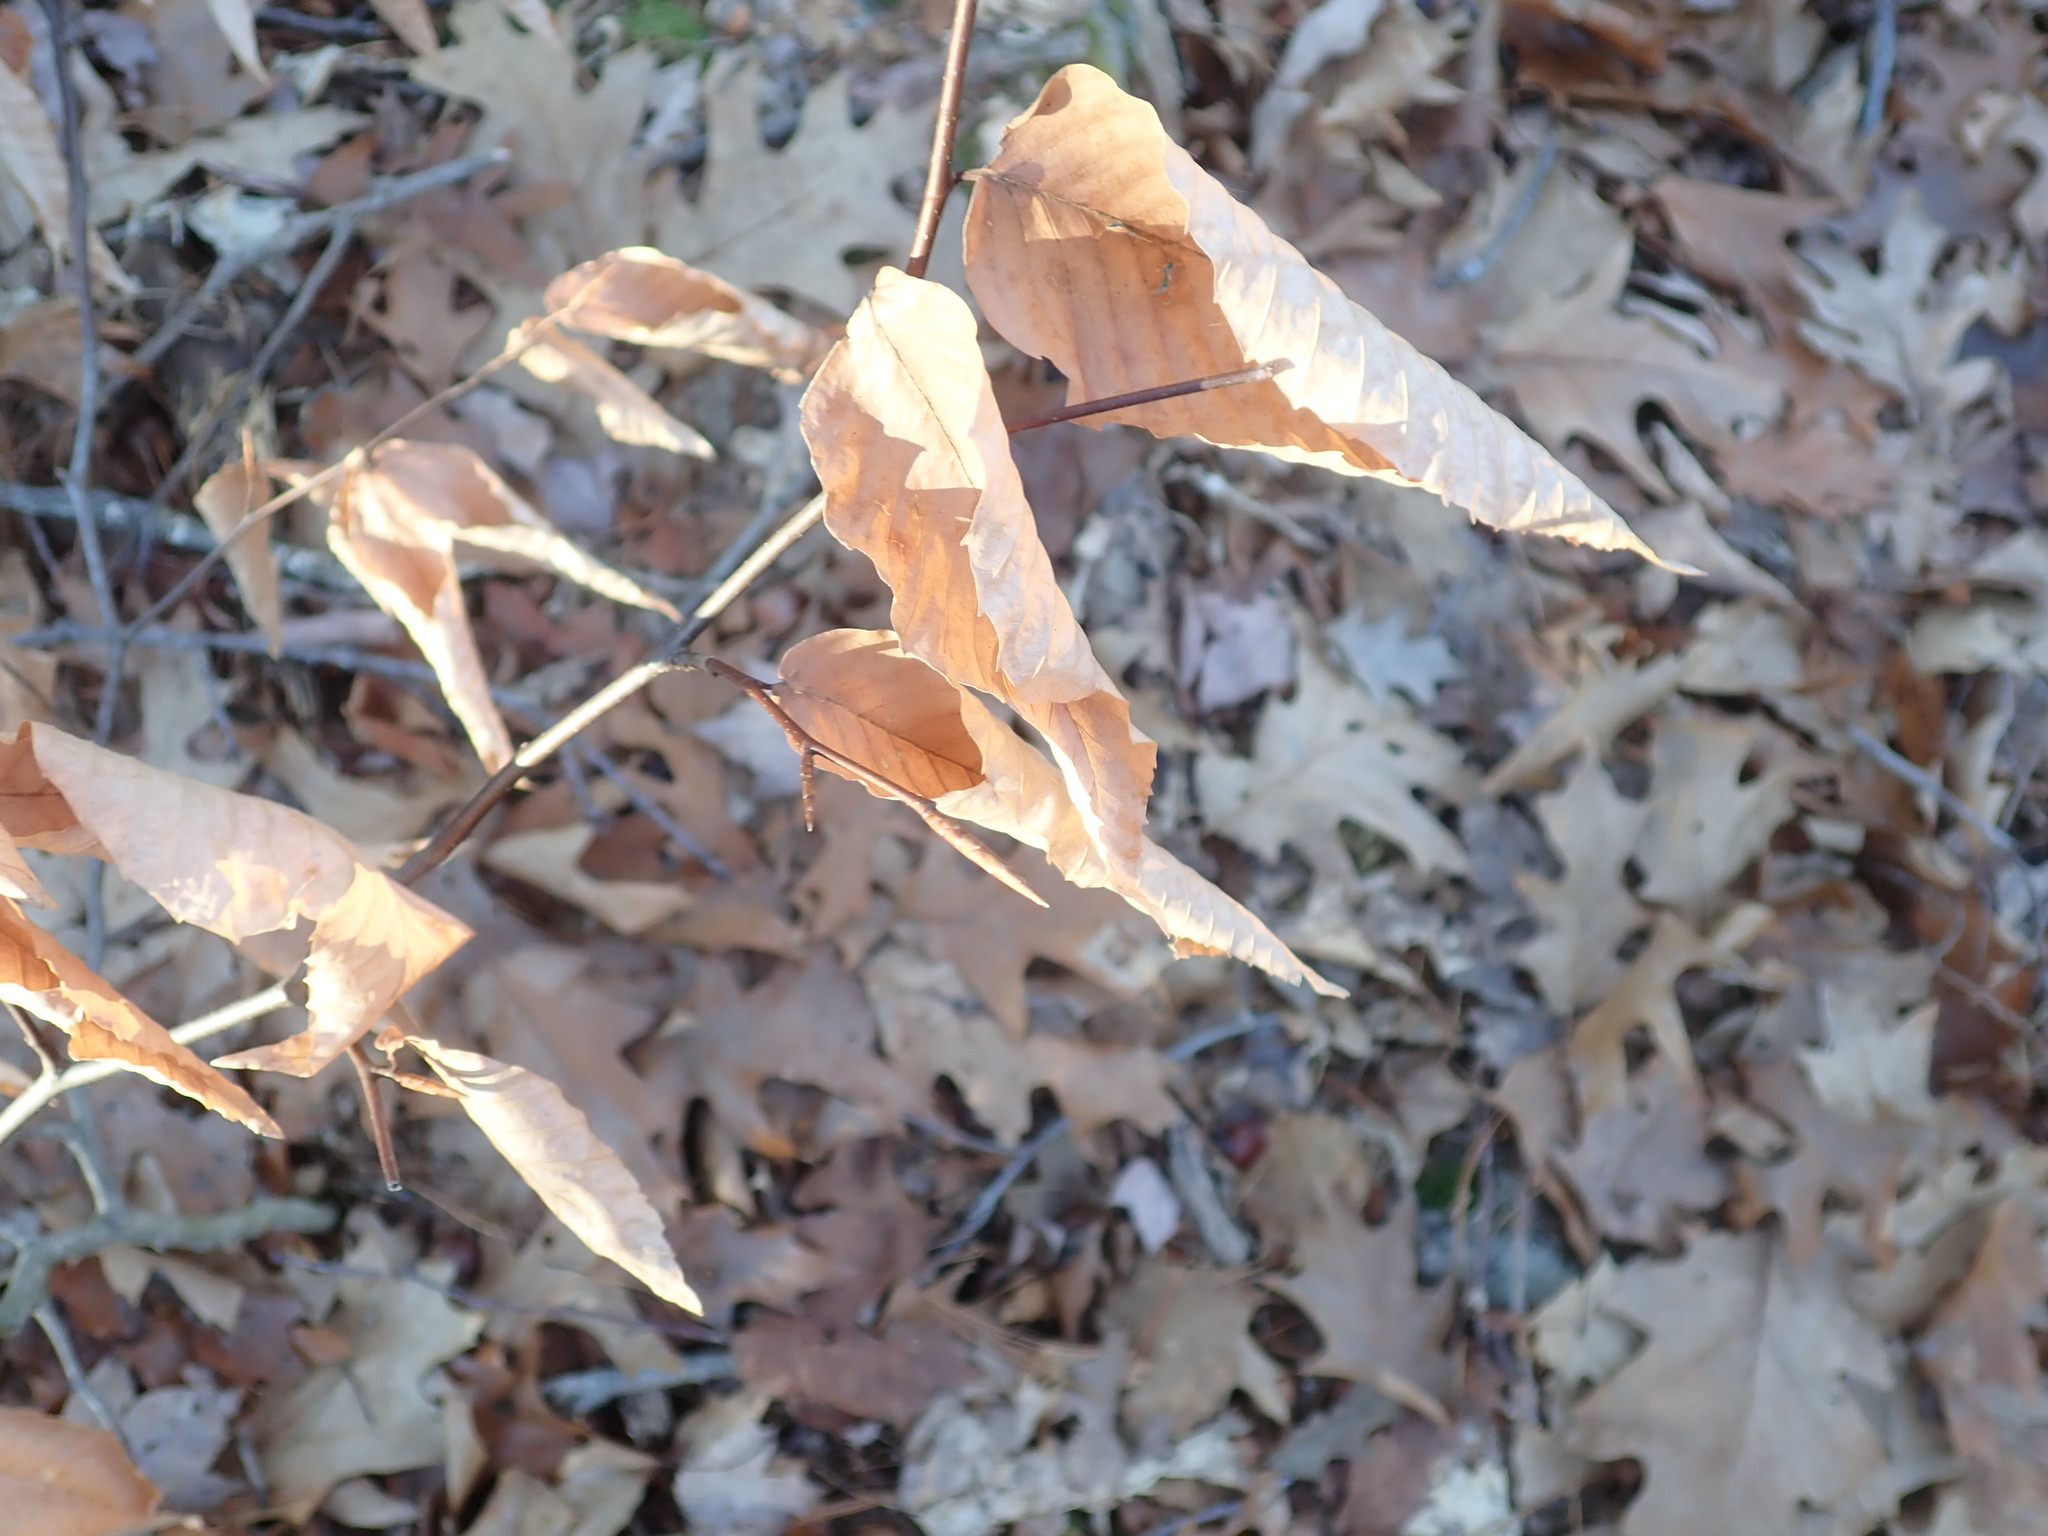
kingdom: Plantae
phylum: Tracheophyta
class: Magnoliopsida
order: Fagales
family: Fagaceae
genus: Fagus
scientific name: Fagus grandifolia
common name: American beech
